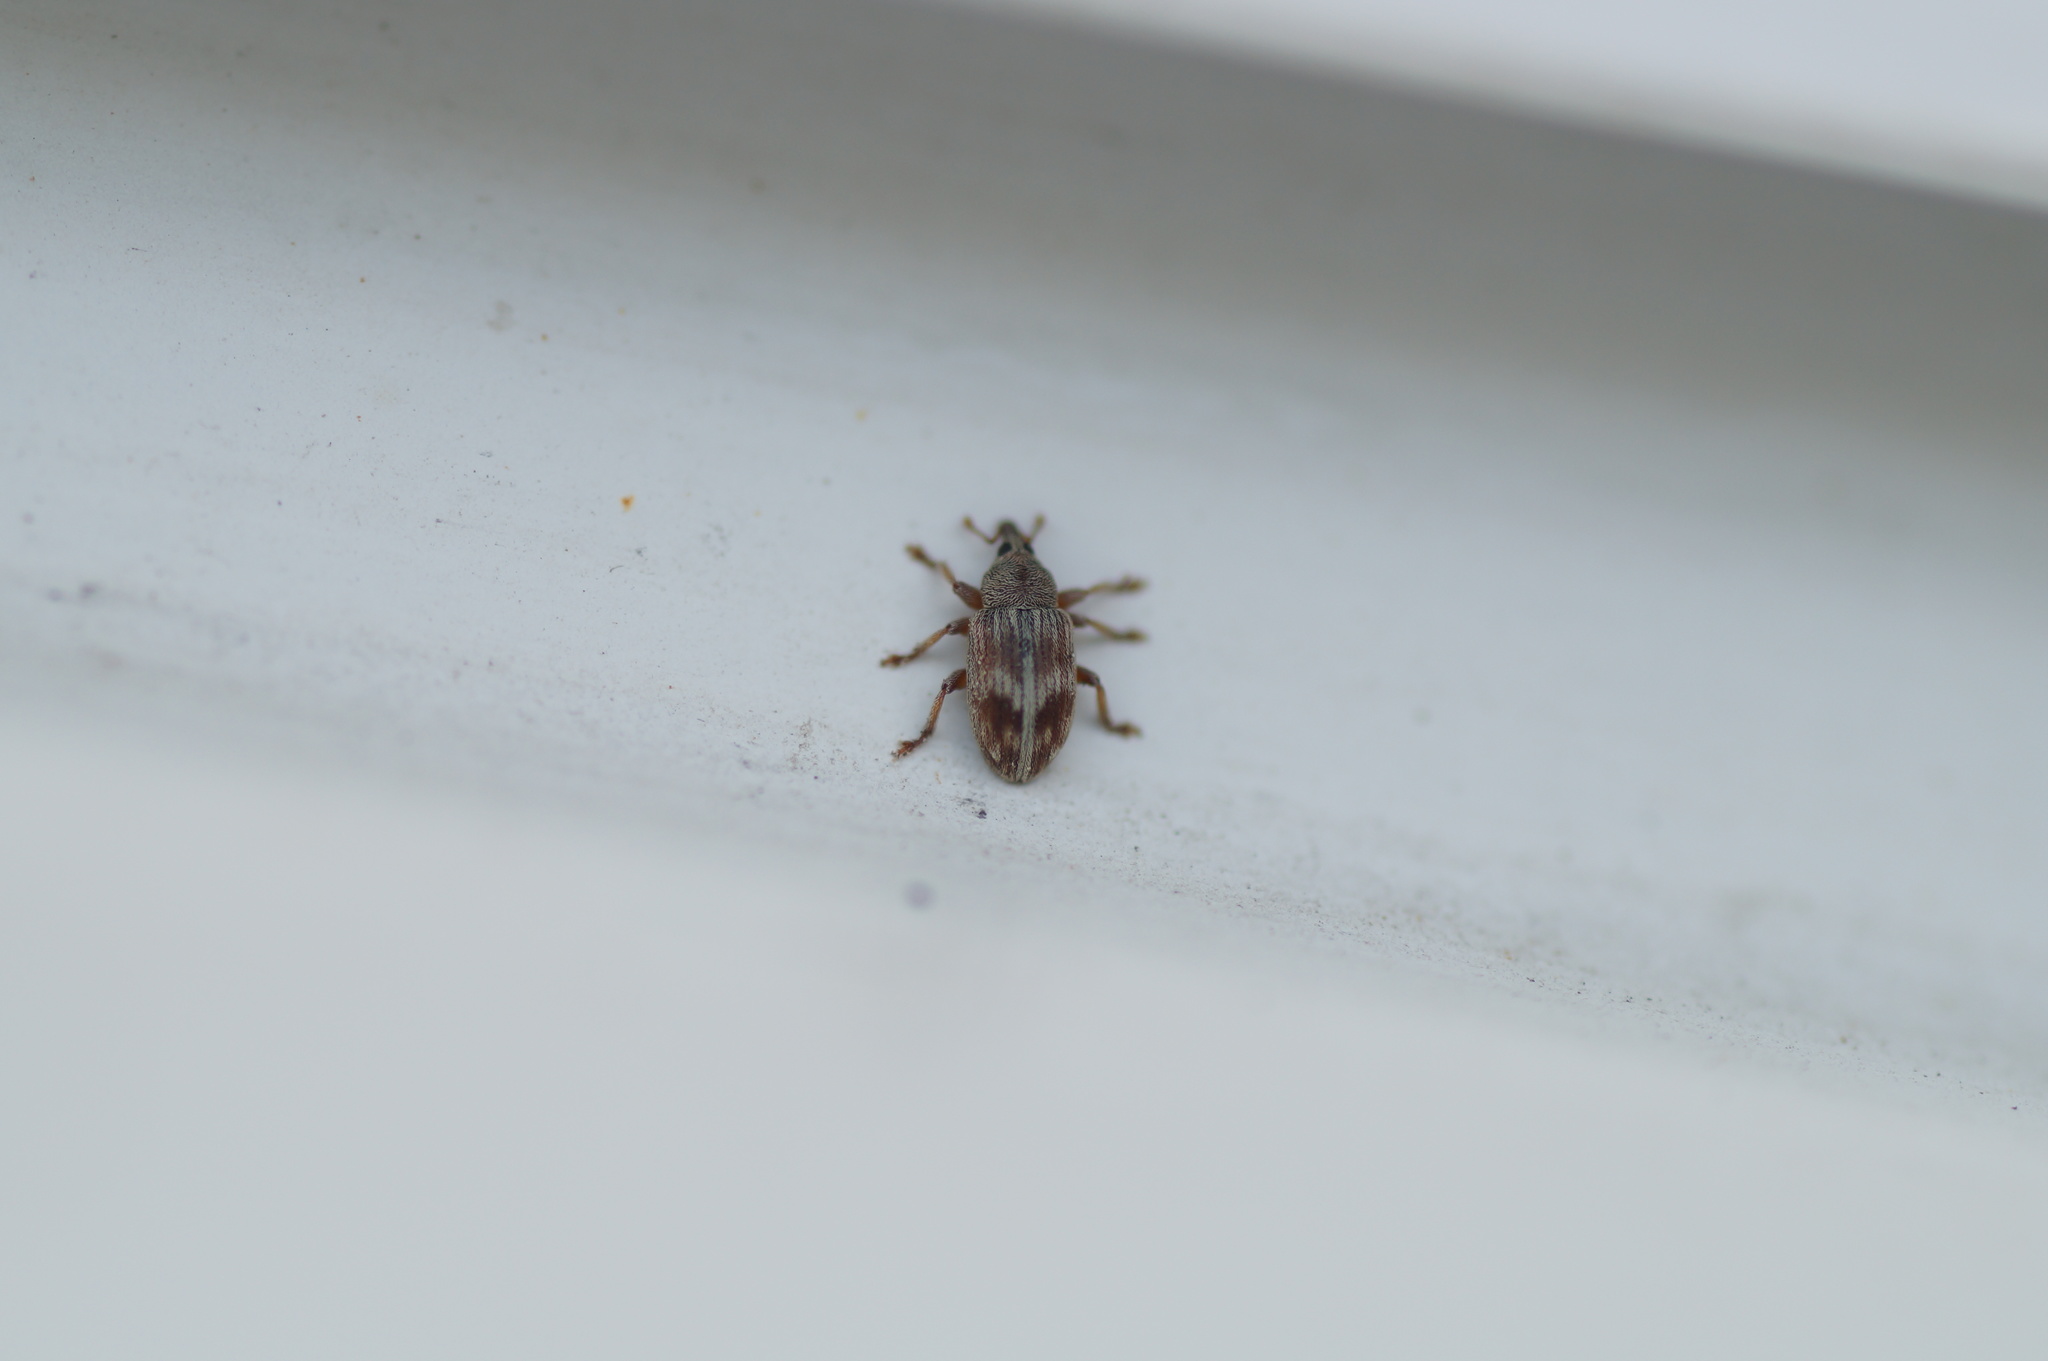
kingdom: Animalia
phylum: Arthropoda
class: Insecta
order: Coleoptera
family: Curculionidae
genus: Ellescus
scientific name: Ellescus scanicus
